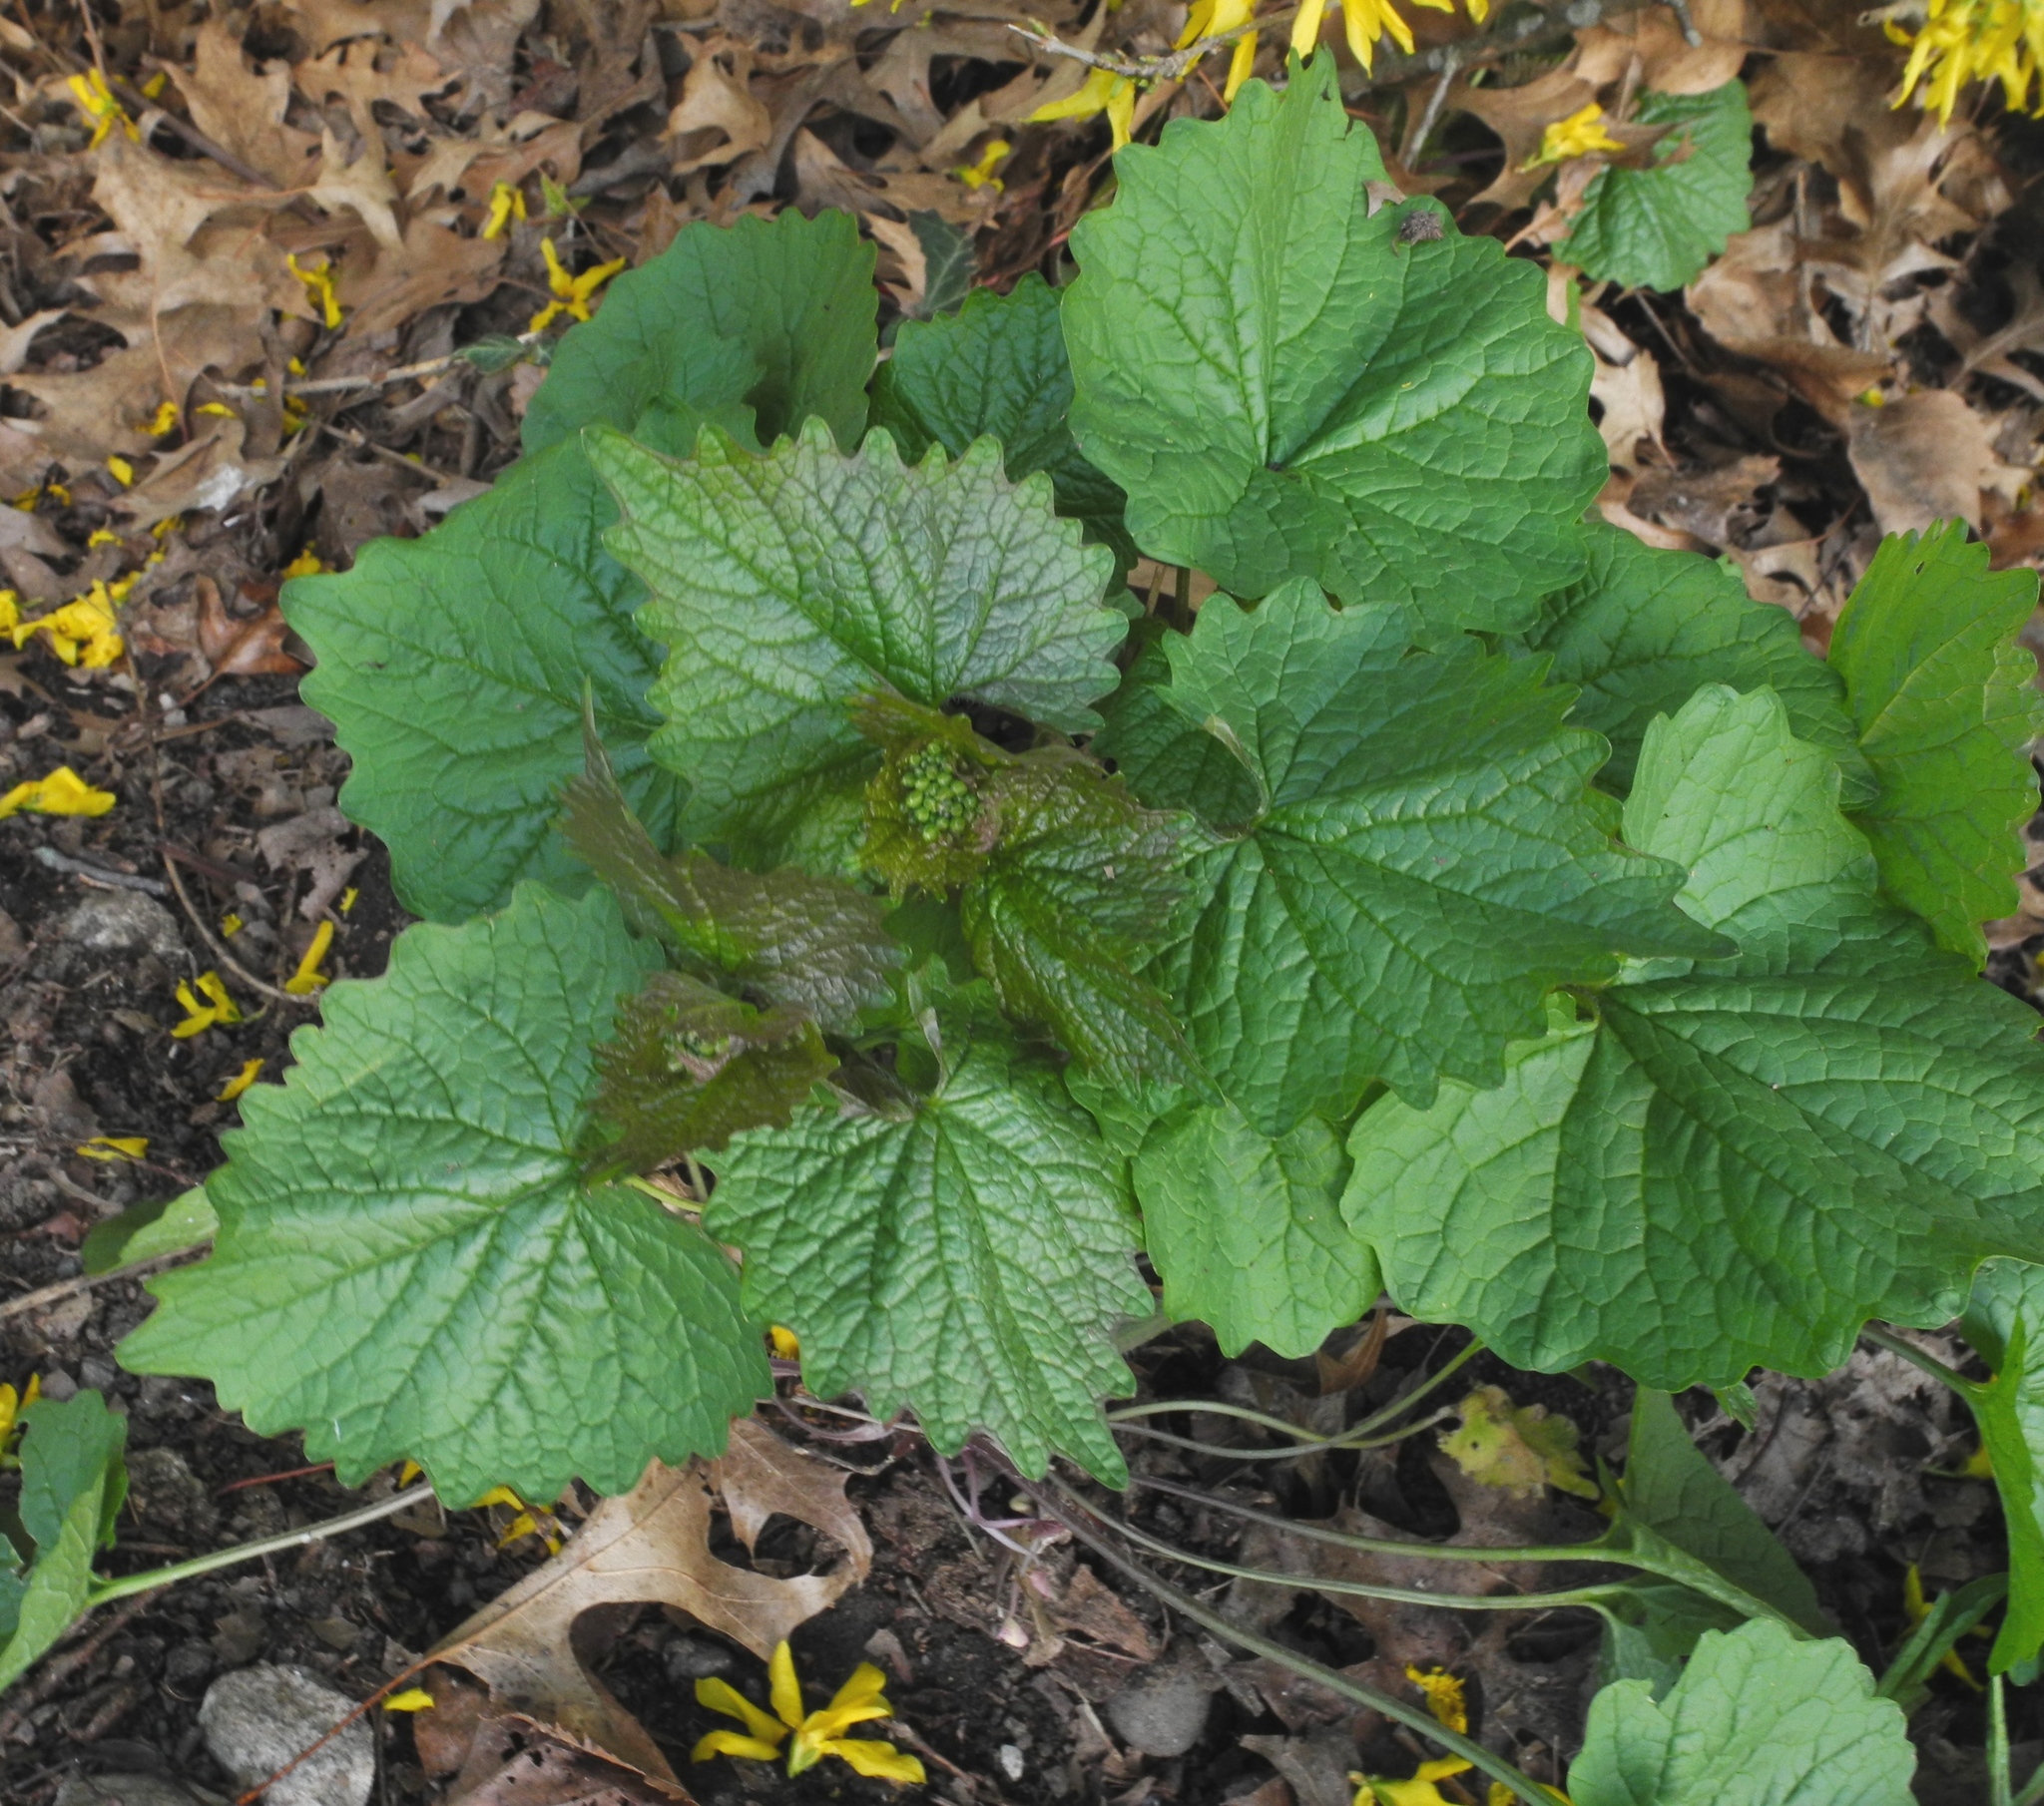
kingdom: Plantae
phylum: Tracheophyta
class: Magnoliopsida
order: Brassicales
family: Brassicaceae
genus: Alliaria
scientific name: Alliaria petiolata
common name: Garlic mustard
